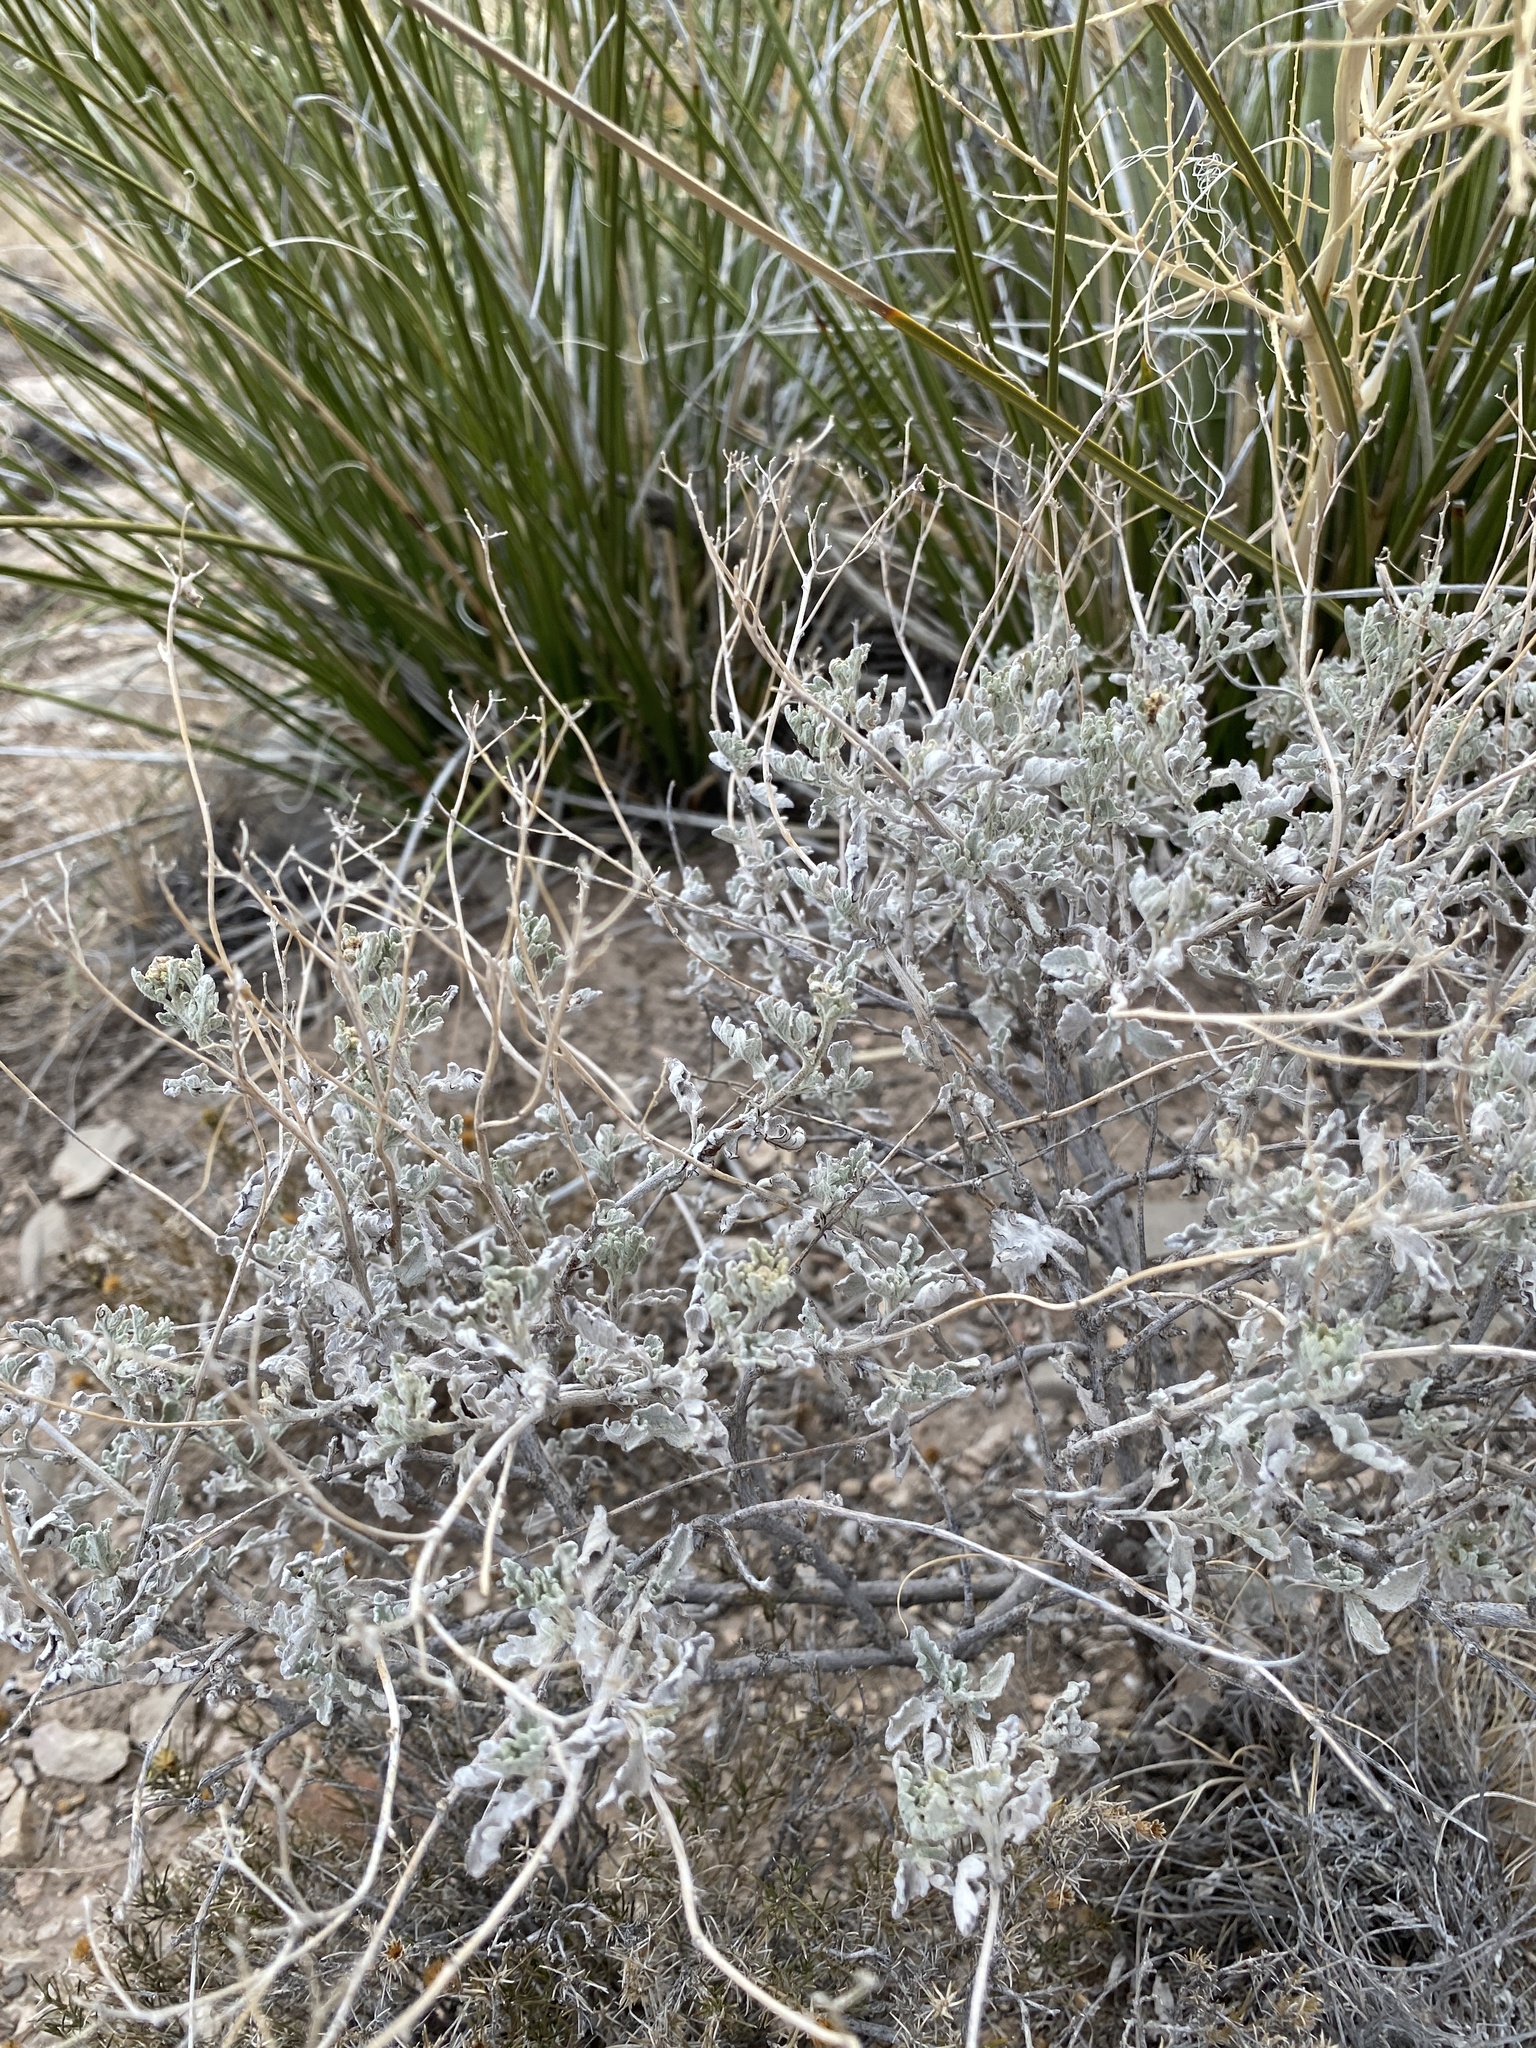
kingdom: Plantae
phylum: Tracheophyta
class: Magnoliopsida
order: Asterales
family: Asteraceae
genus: Parthenium
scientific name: Parthenium incanum
